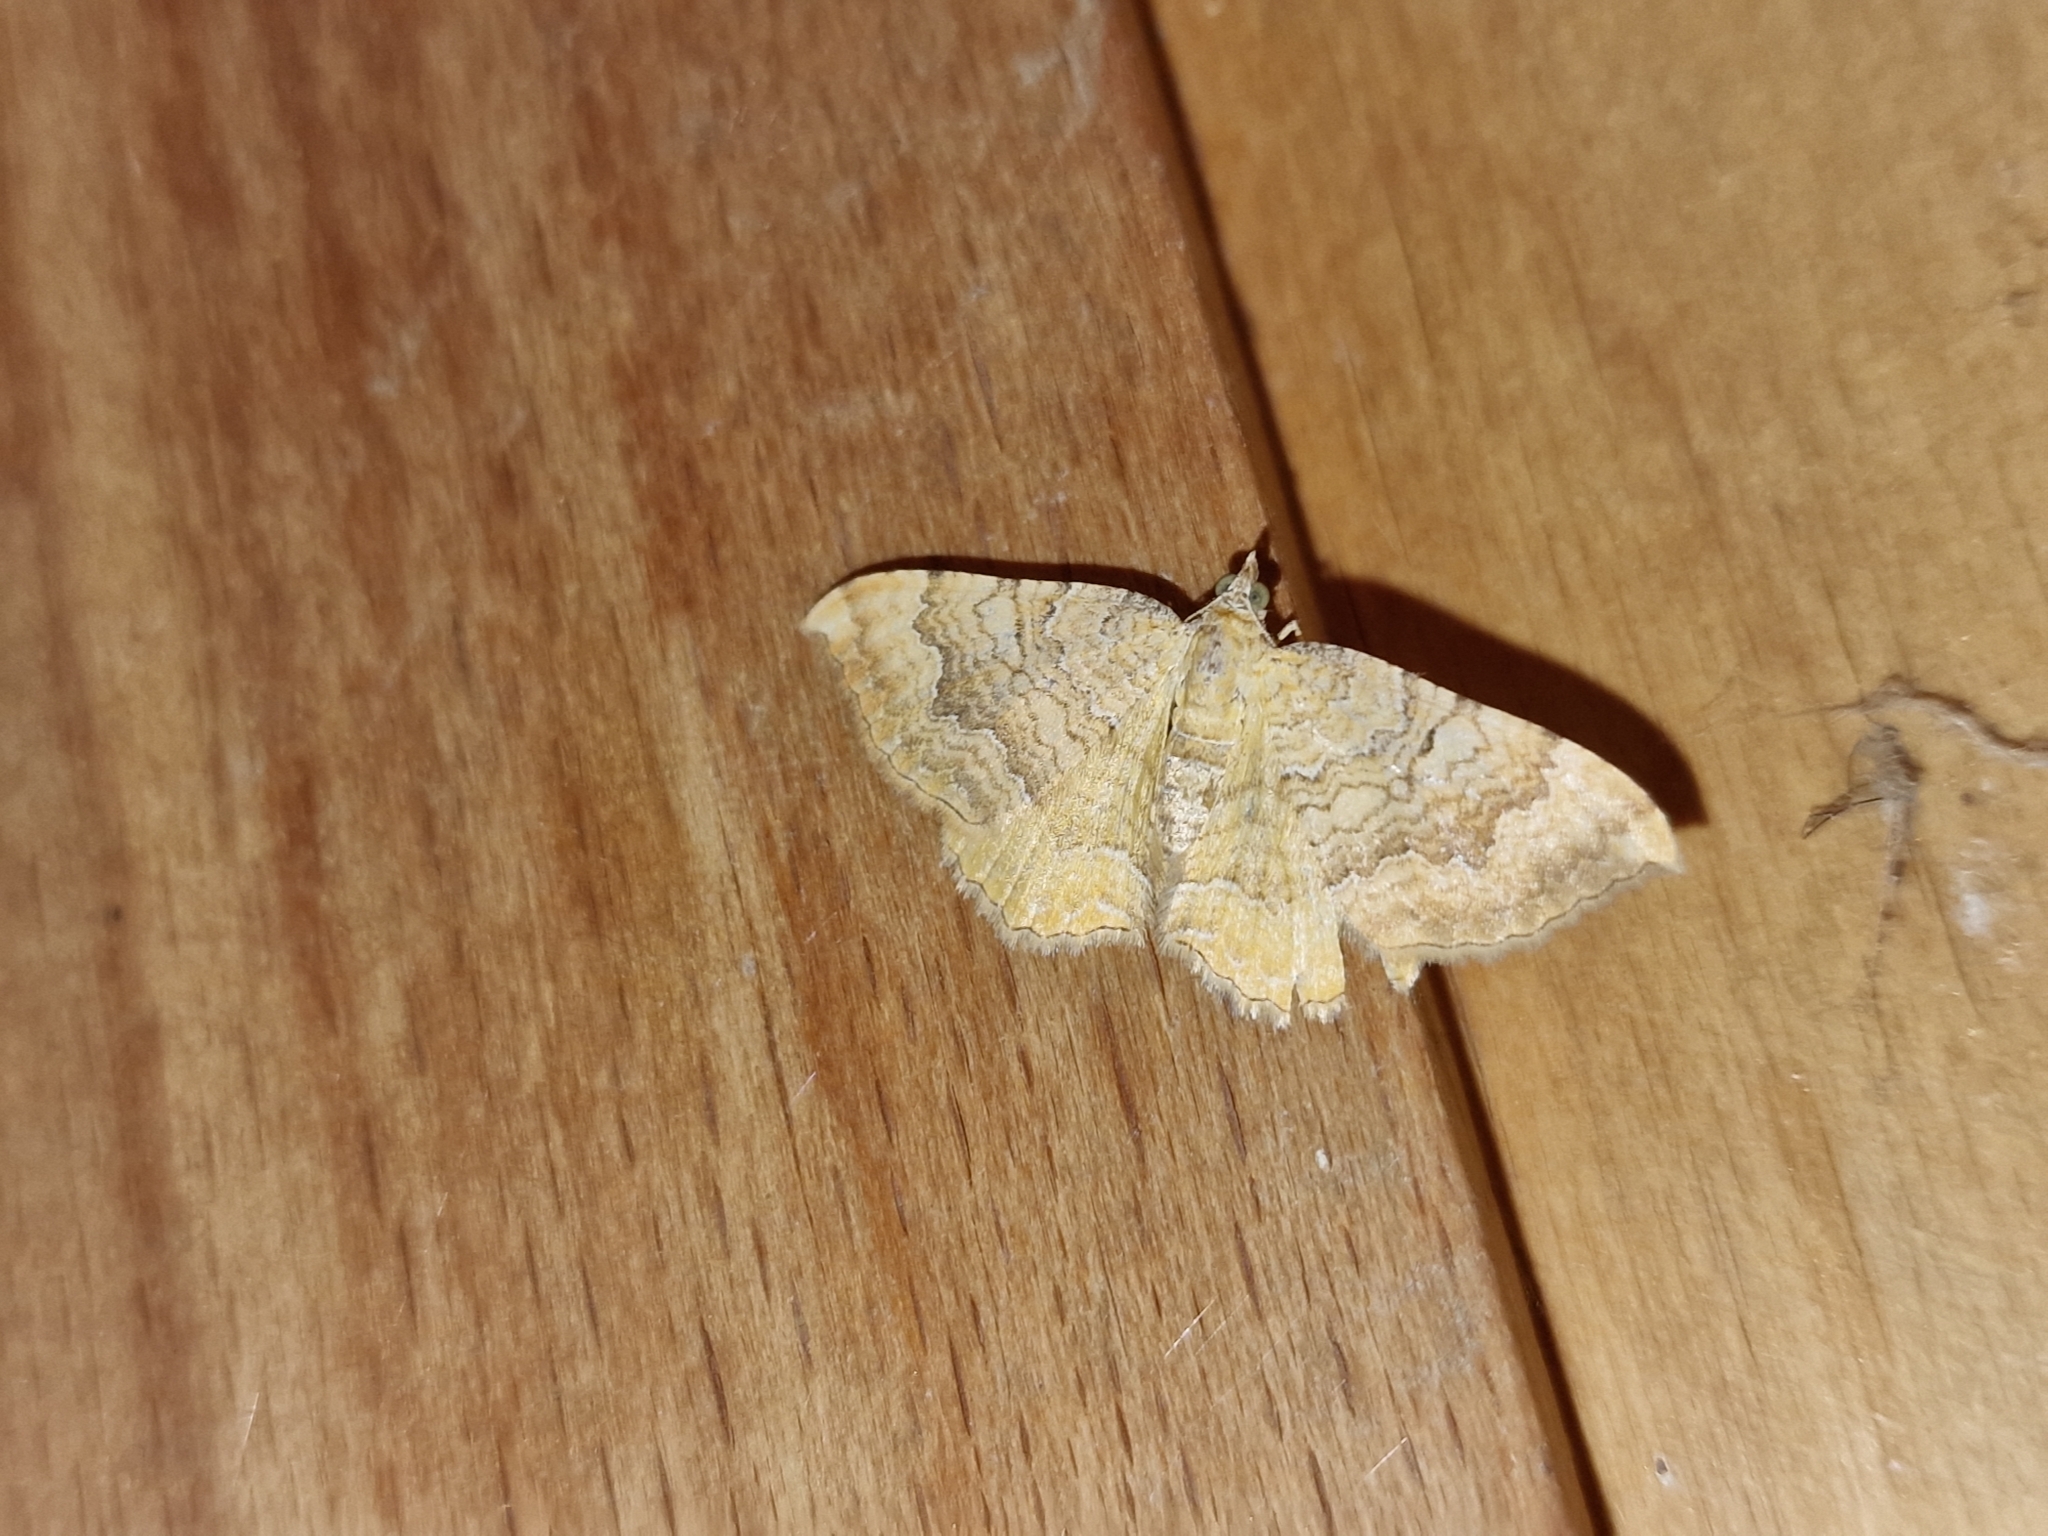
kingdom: Animalia
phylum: Arthropoda
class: Insecta
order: Lepidoptera
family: Geometridae
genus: Camptogramma
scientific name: Camptogramma bilineata
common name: Yellow shell
